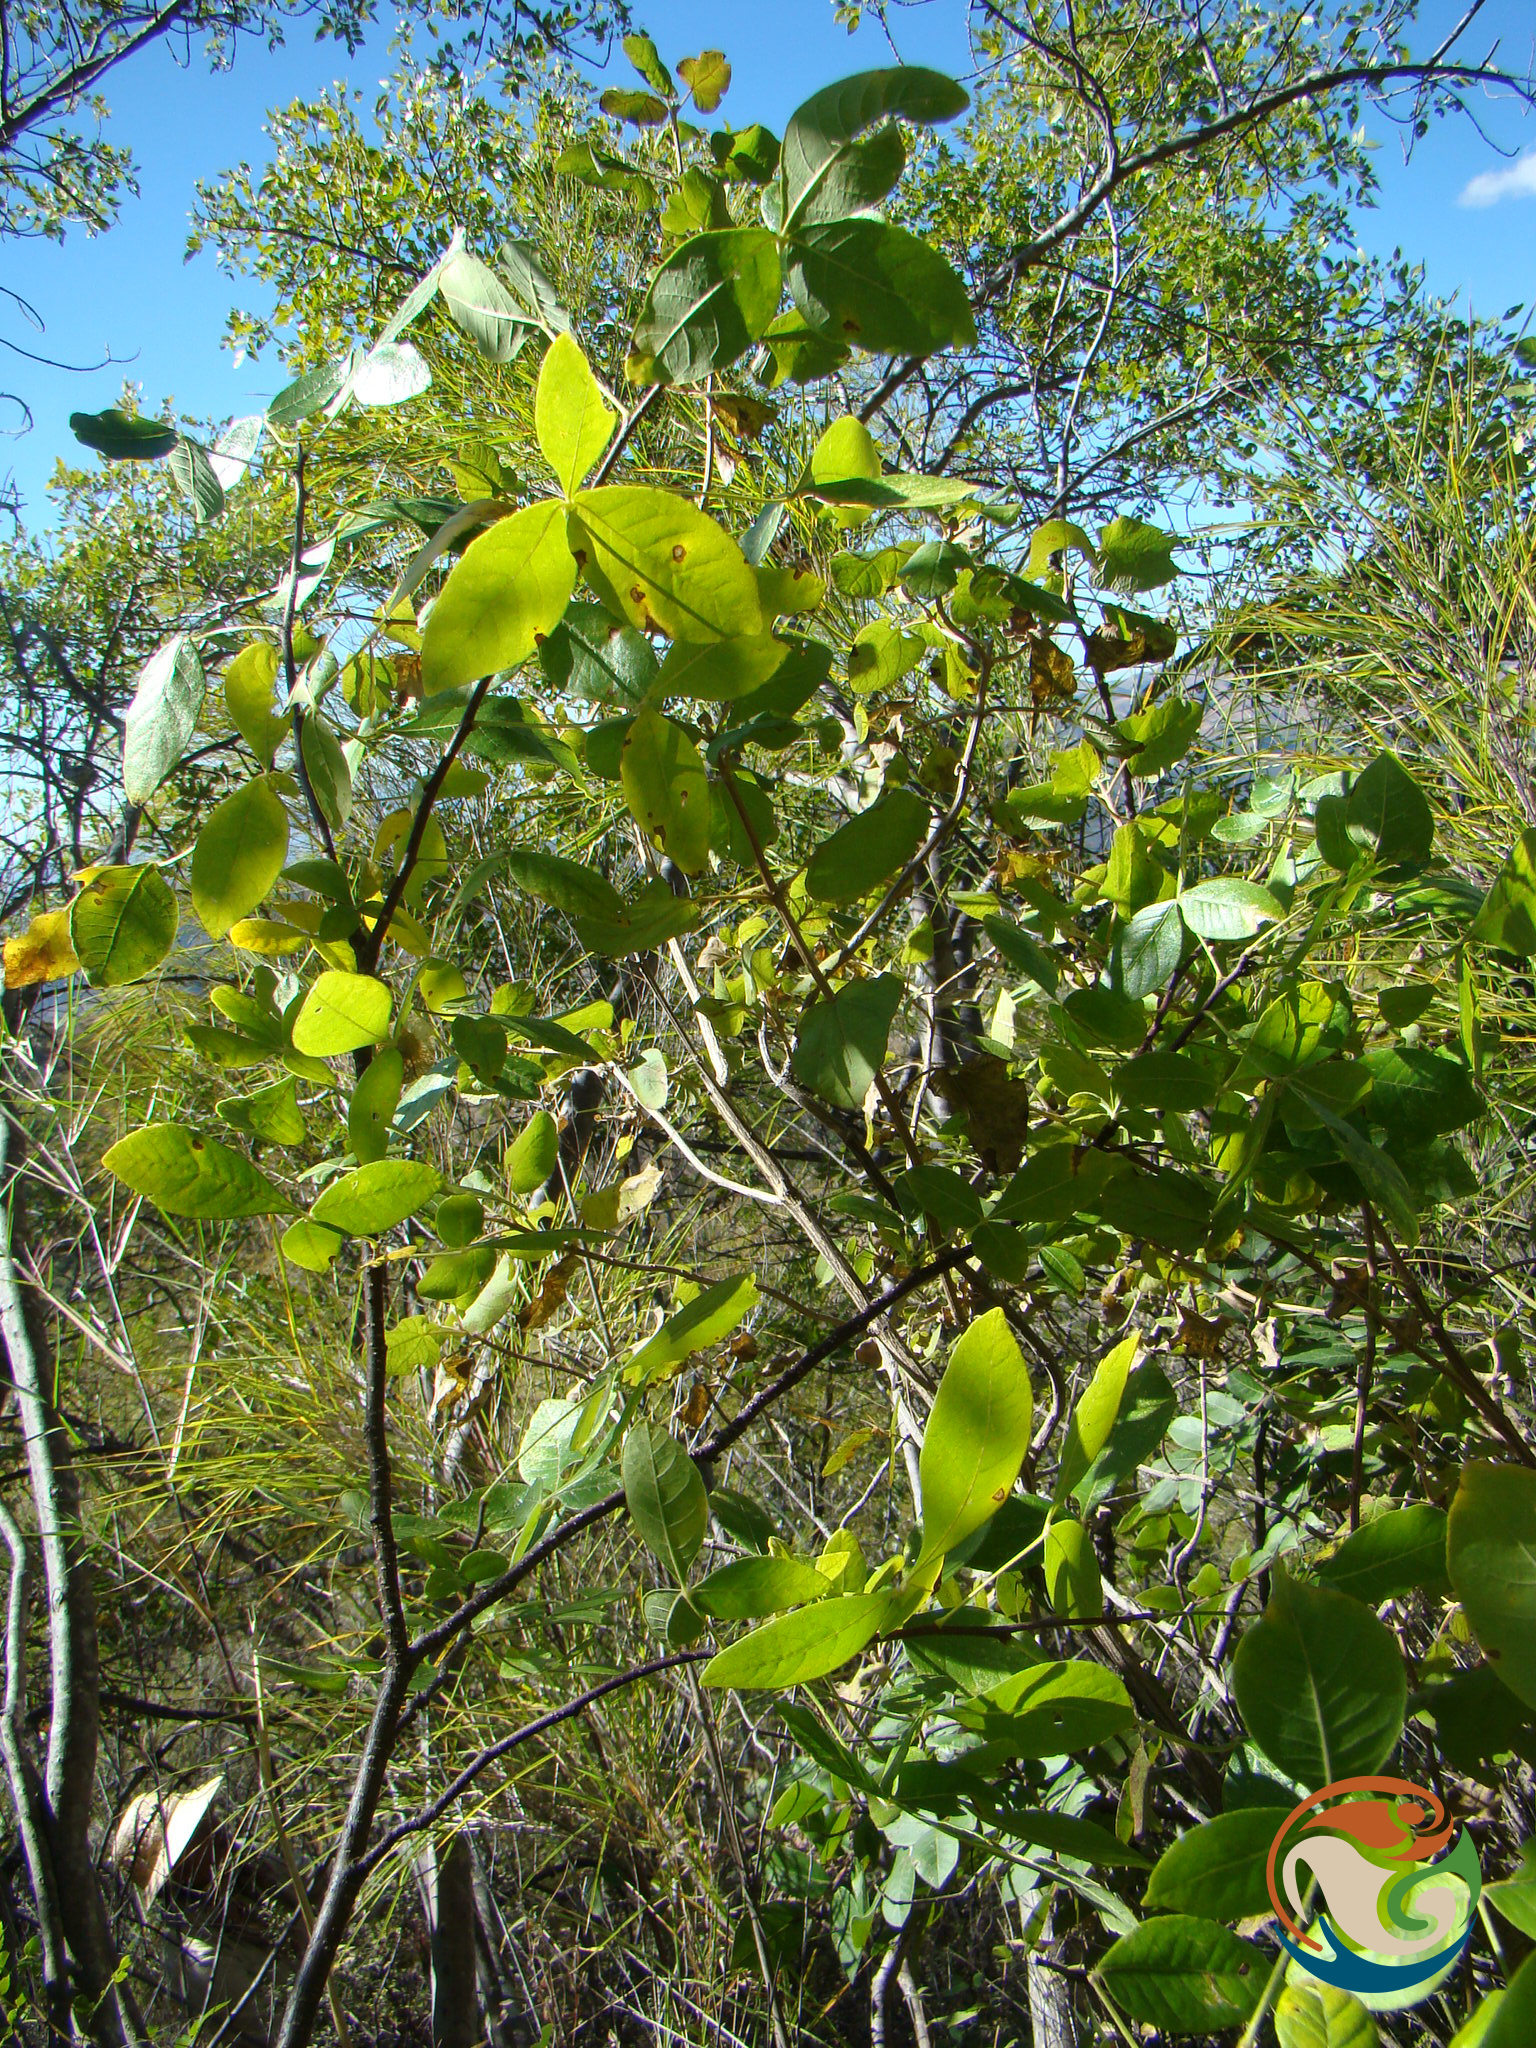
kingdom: Plantae
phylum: Tracheophyta
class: Magnoliopsida
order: Sapindales
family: Rutaceae
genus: Ptelea
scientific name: Ptelea trifoliata
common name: Common hop-tree
